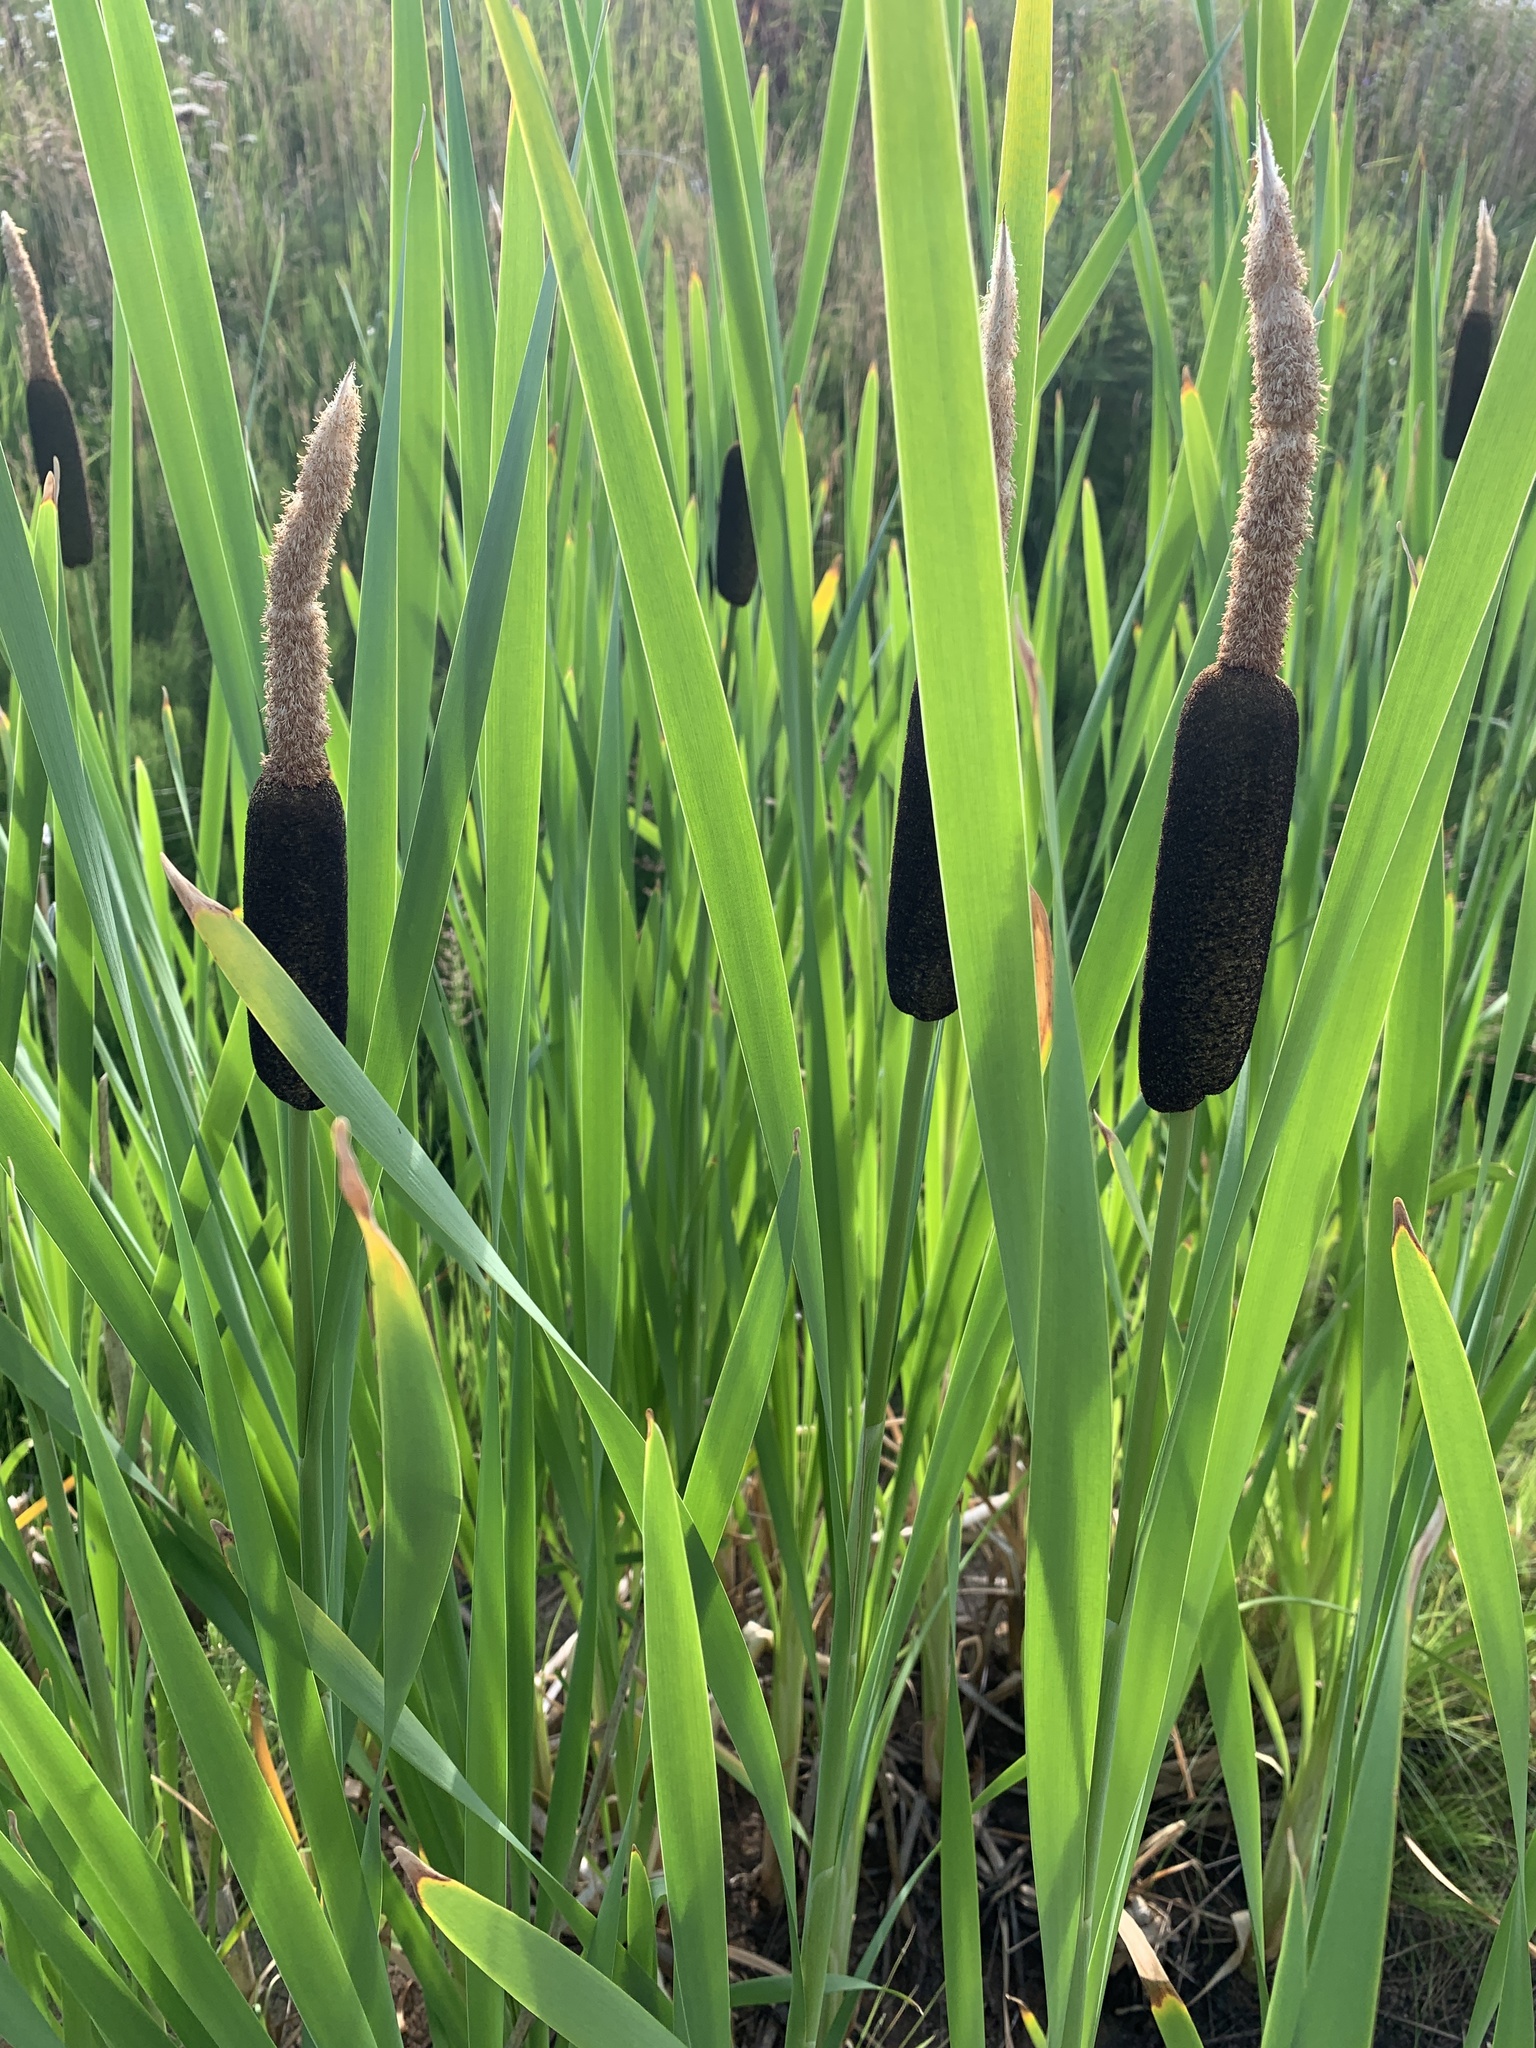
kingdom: Plantae
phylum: Tracheophyta
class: Liliopsida
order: Poales
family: Typhaceae
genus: Typha
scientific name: Typha latifolia
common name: Broadleaf cattail
